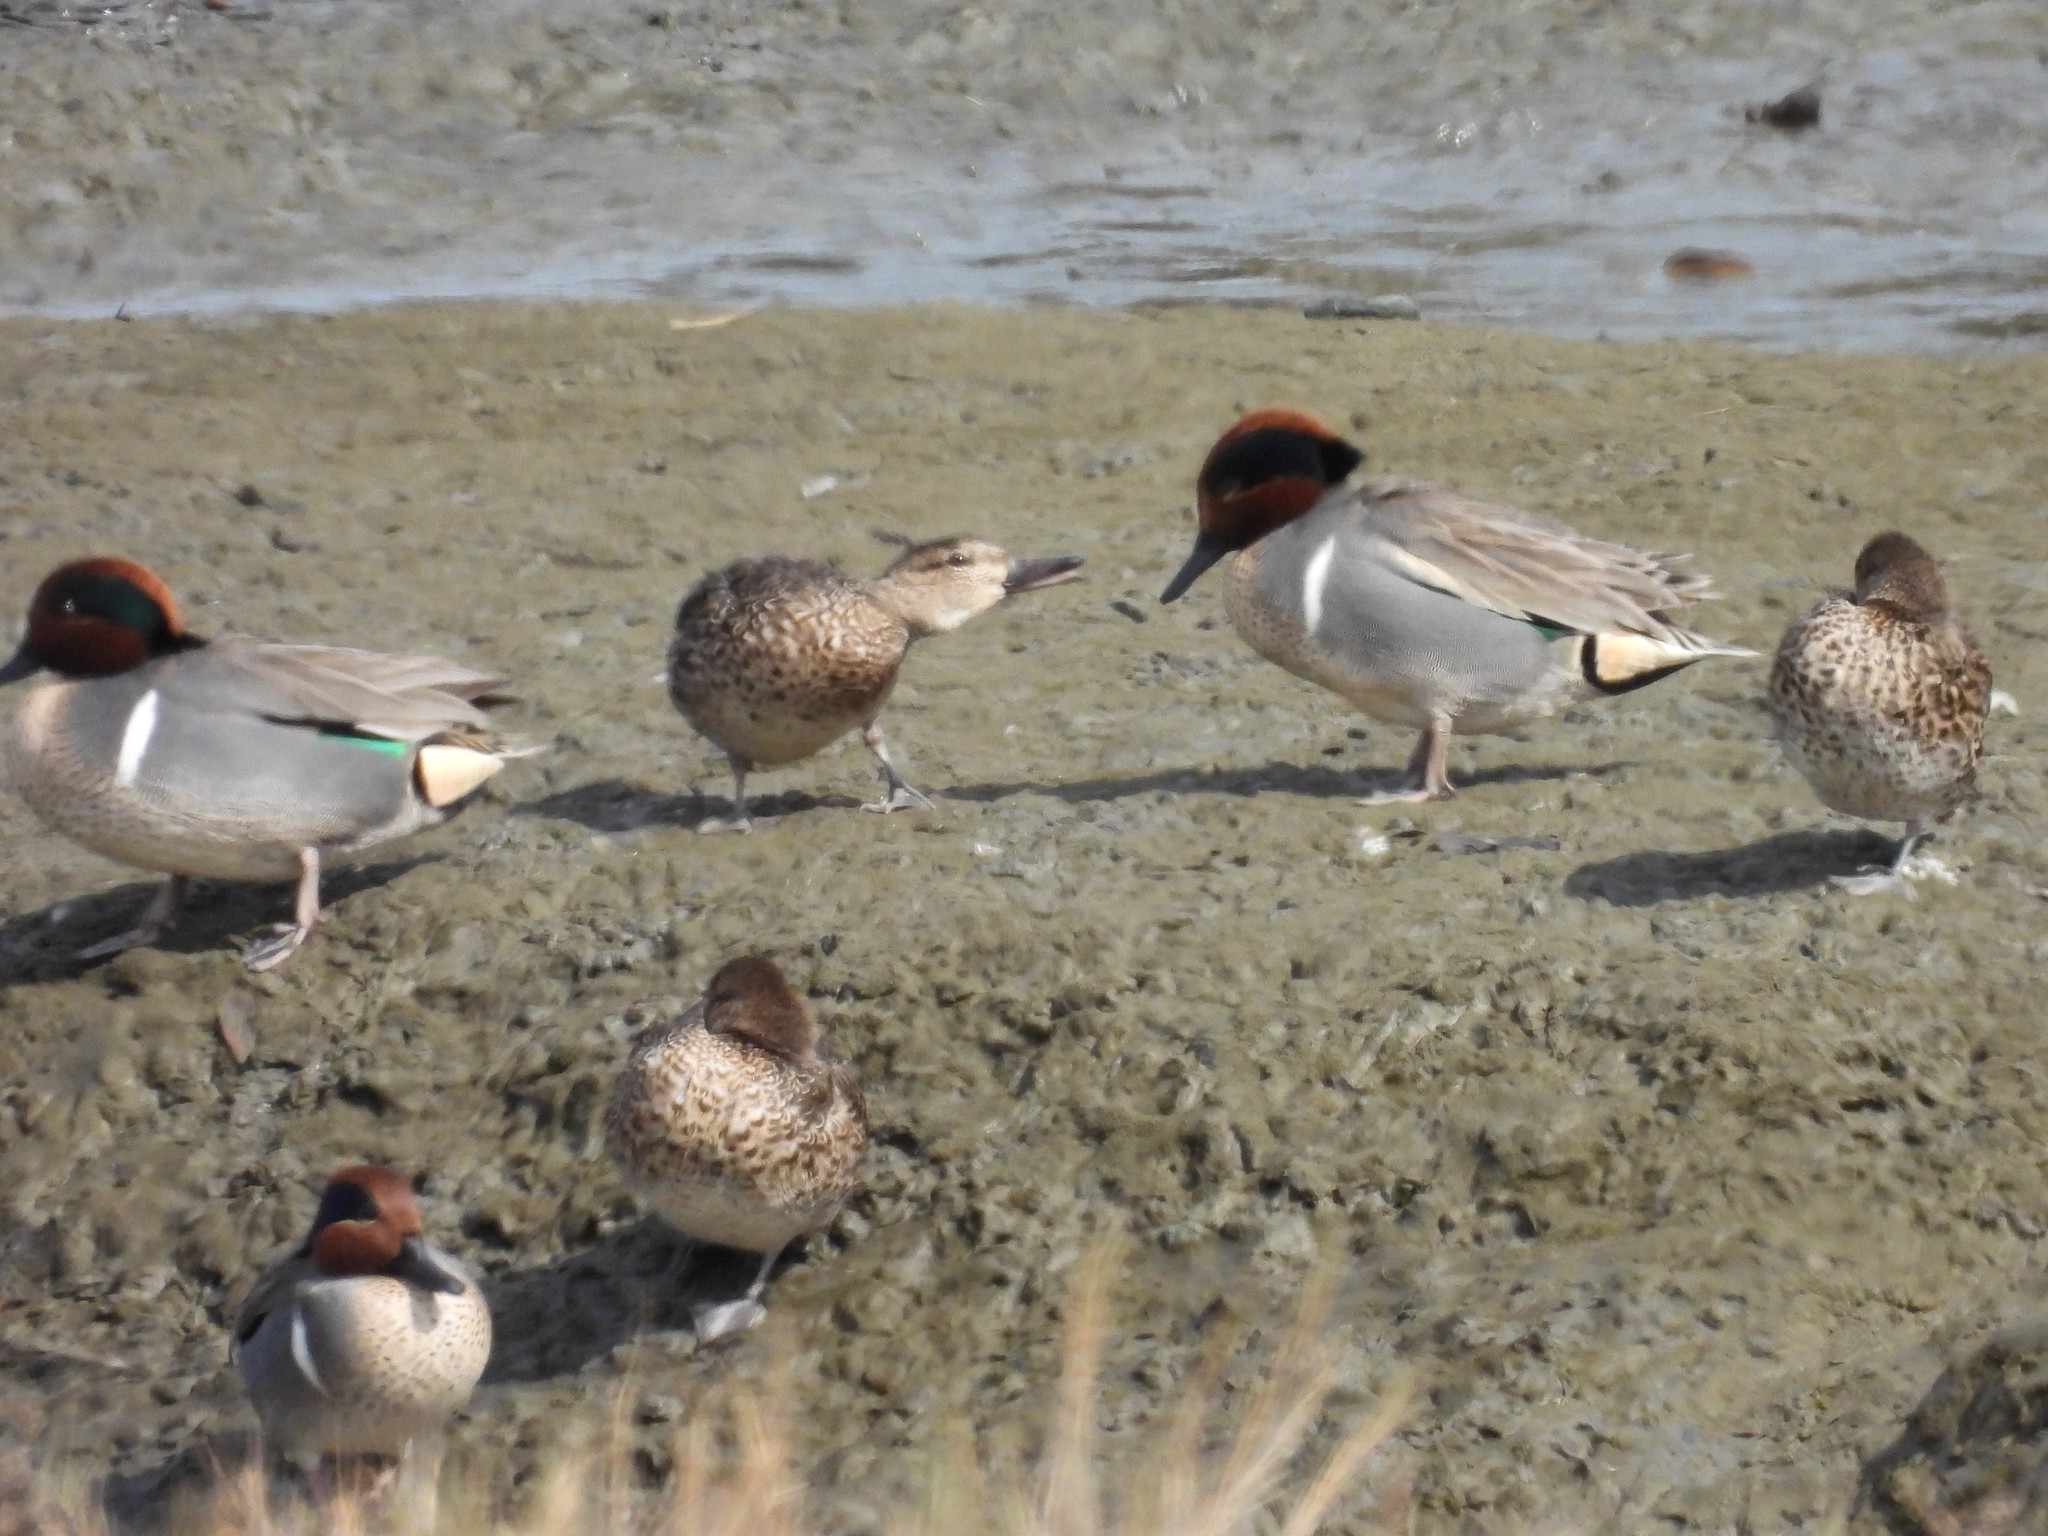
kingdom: Animalia
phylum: Chordata
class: Aves
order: Anseriformes
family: Anatidae
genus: Anas
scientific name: Anas crecca
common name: Eurasian teal
